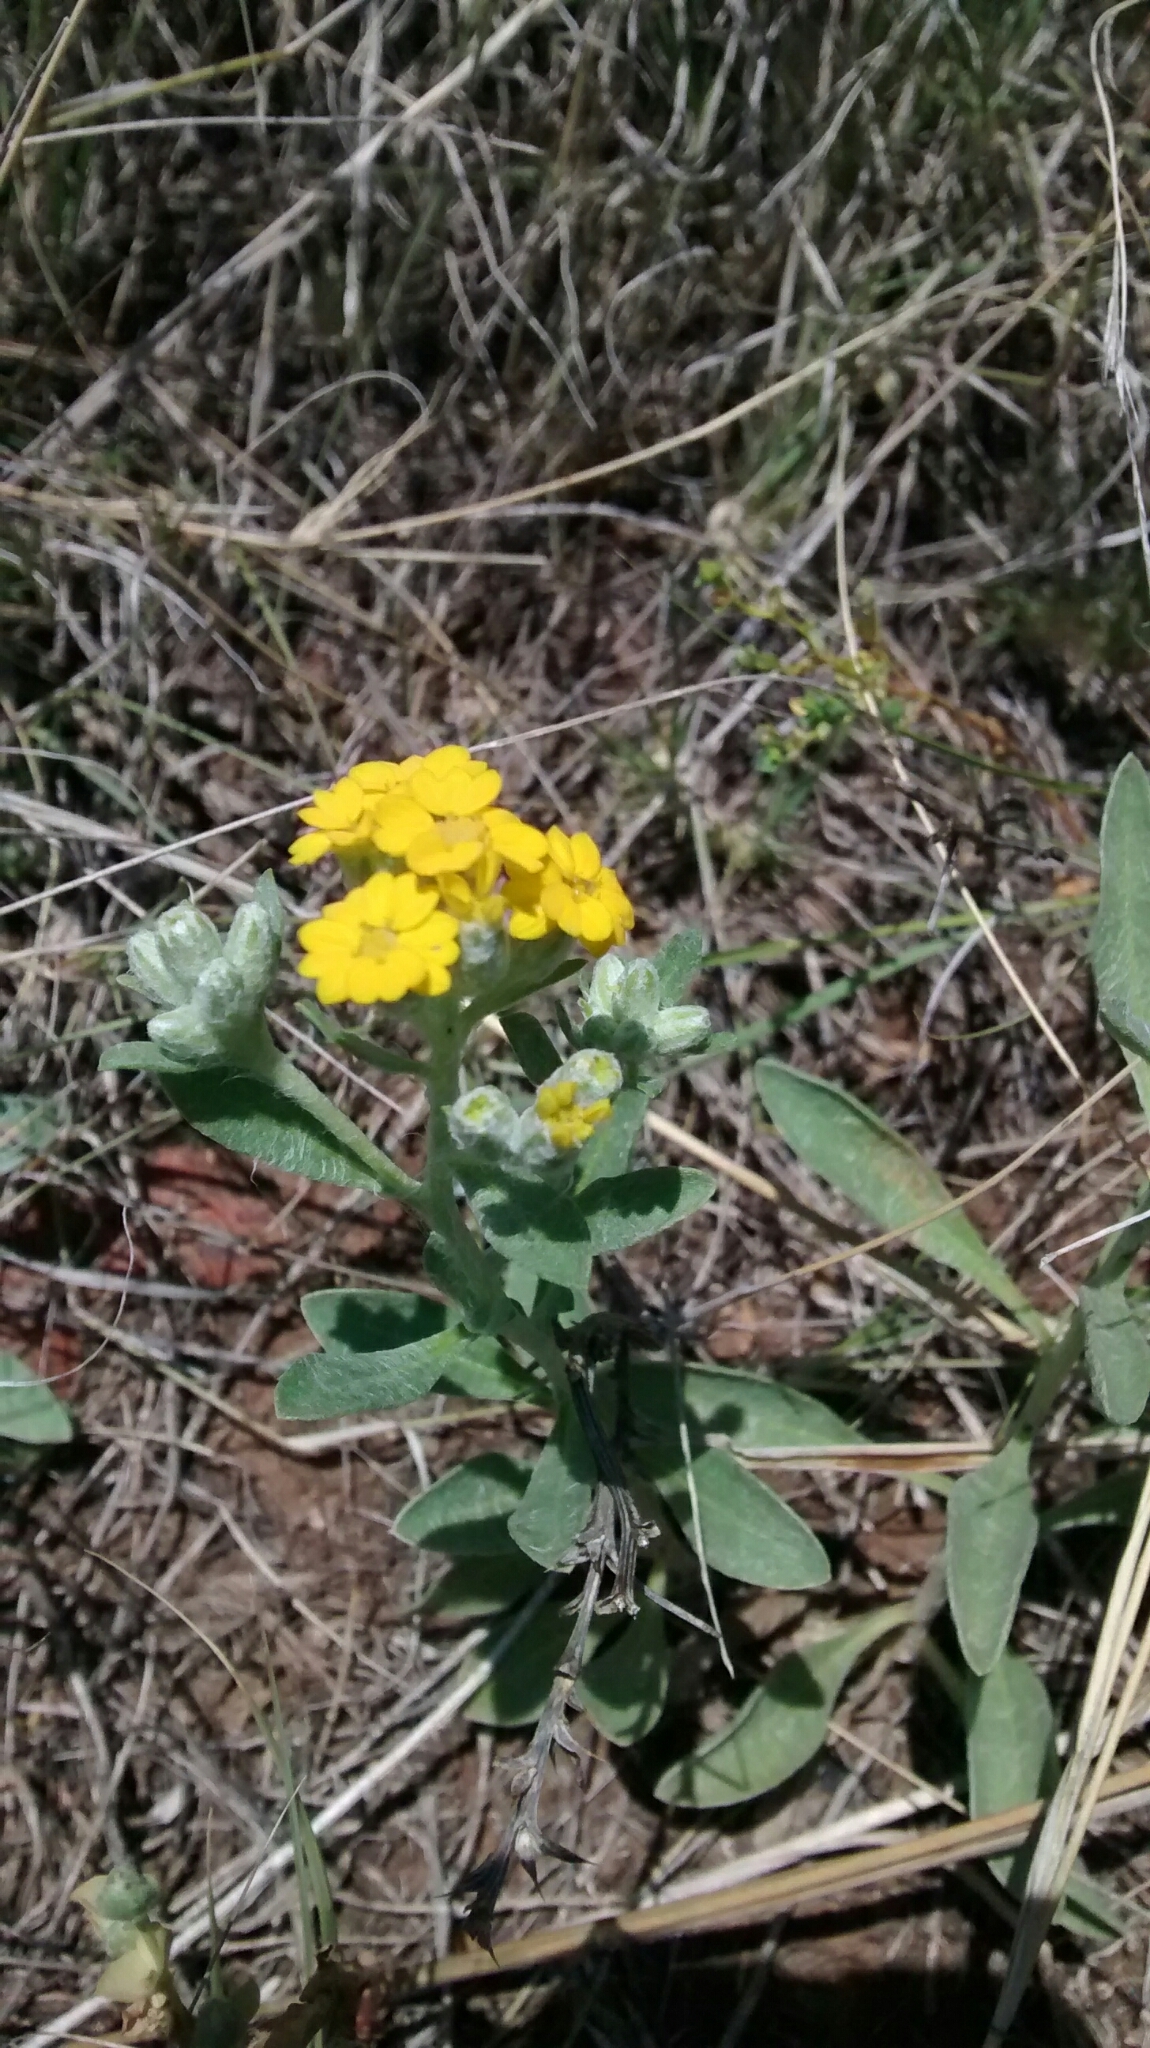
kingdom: Plantae
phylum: Tracheophyta
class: Magnoliopsida
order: Asterales
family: Asteraceae
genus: Psilostrophe
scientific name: Psilostrophe tagetina
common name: Marigold paper-flower
